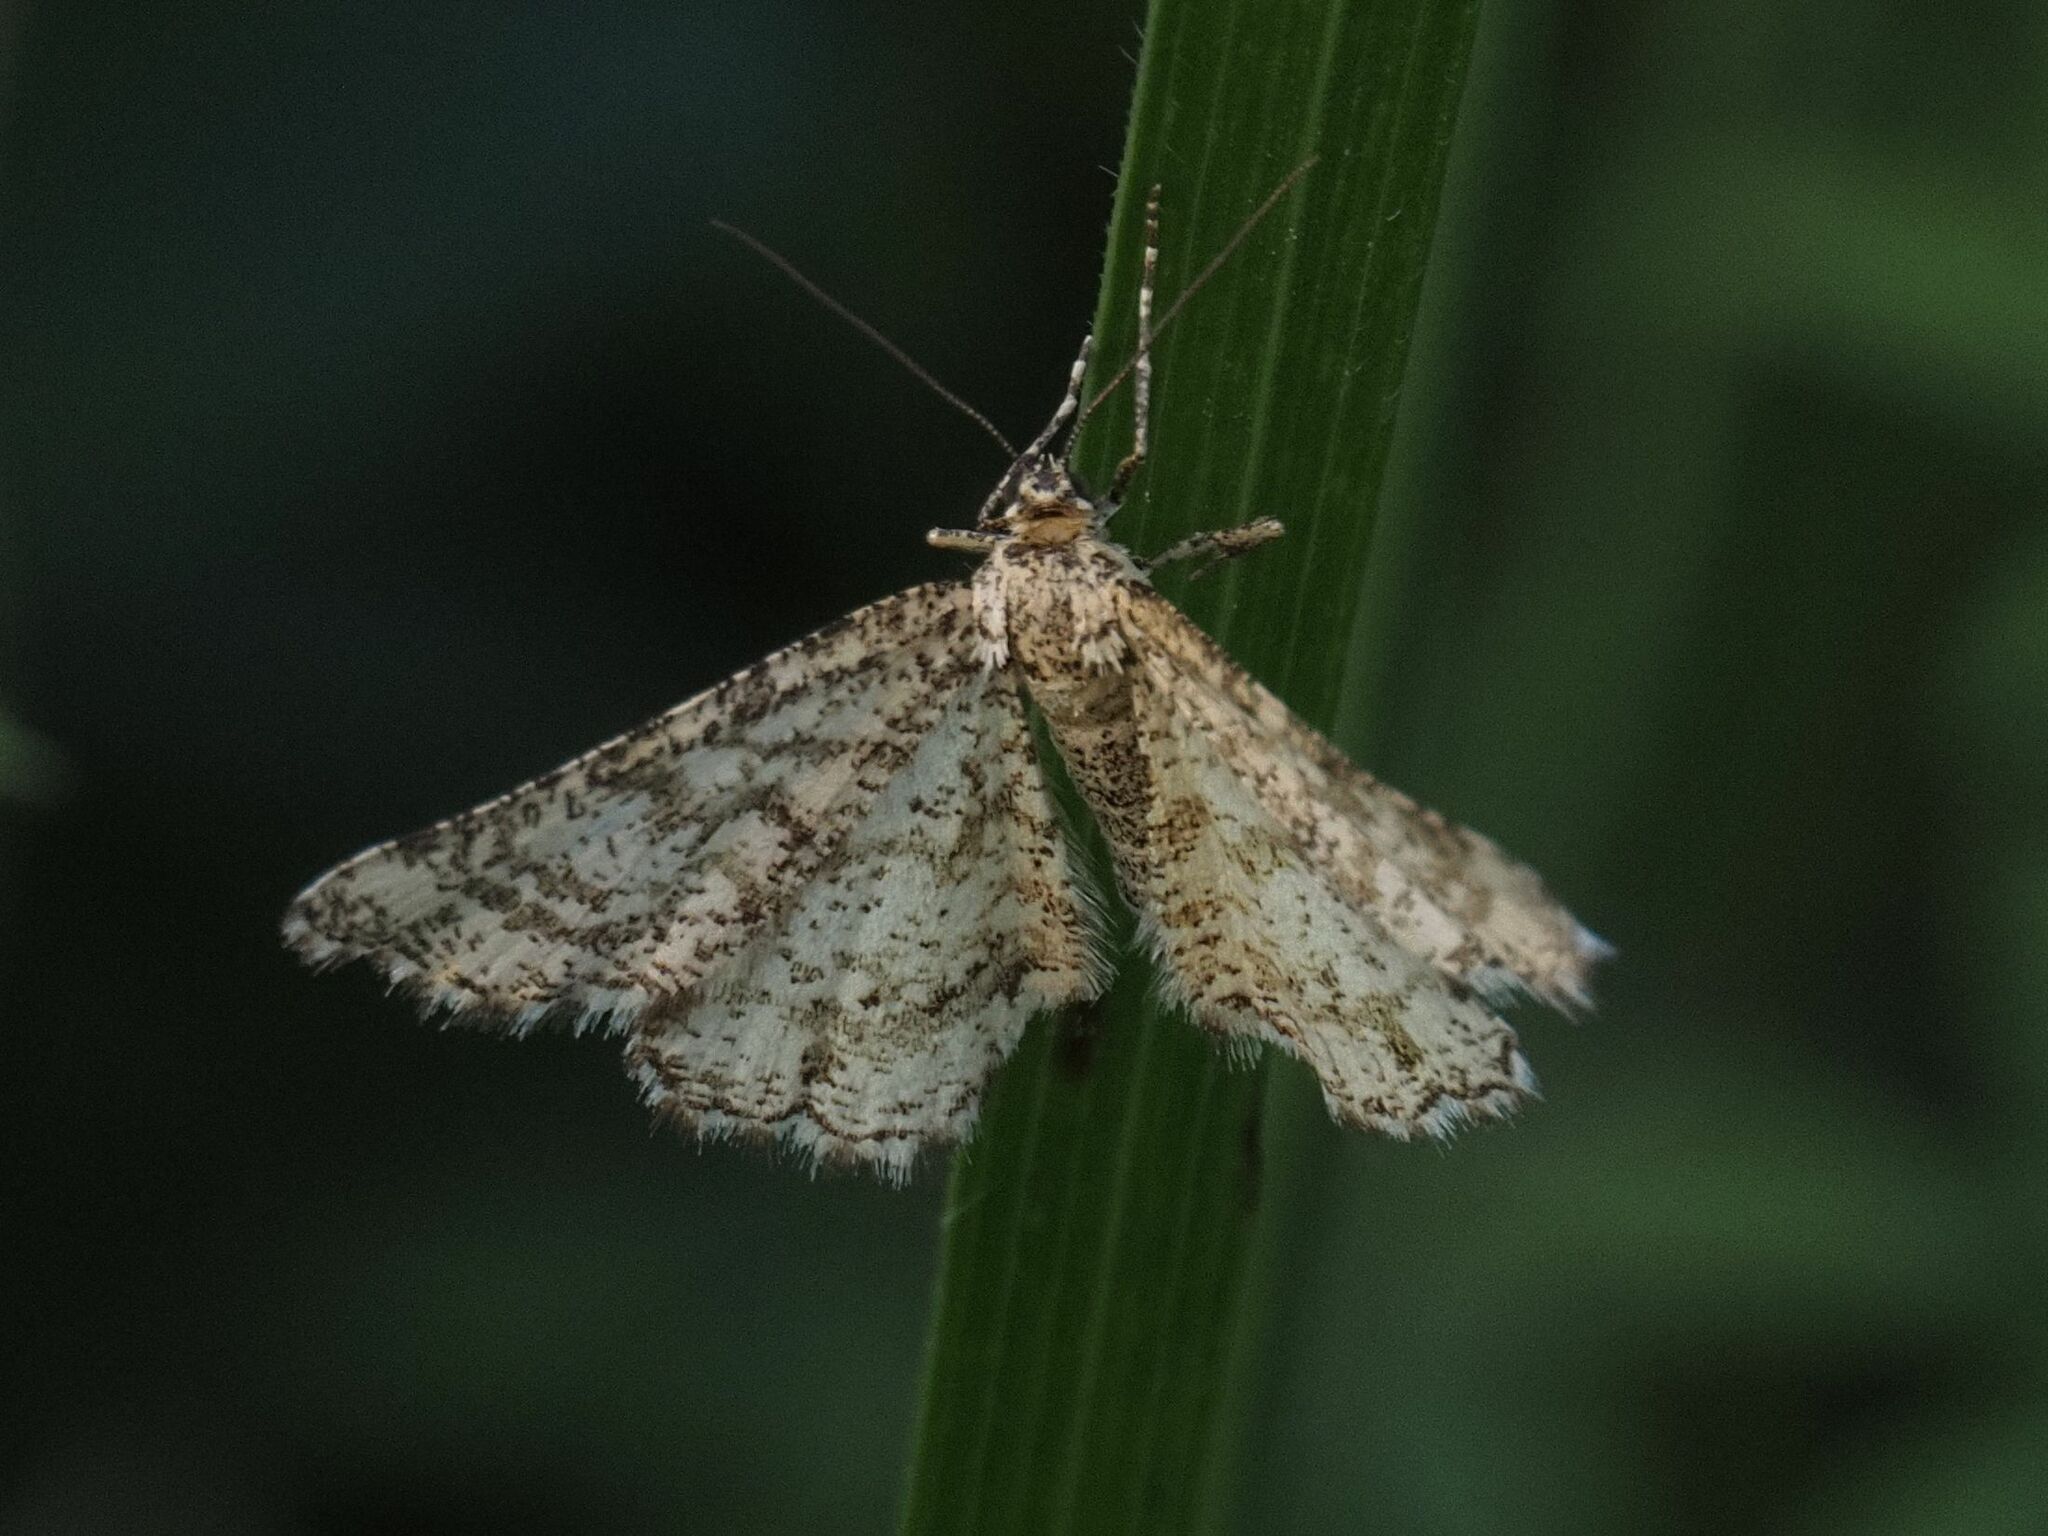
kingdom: Animalia
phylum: Arthropoda
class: Insecta
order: Lepidoptera
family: Geometridae
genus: Heliomata
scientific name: Heliomata glarearia
